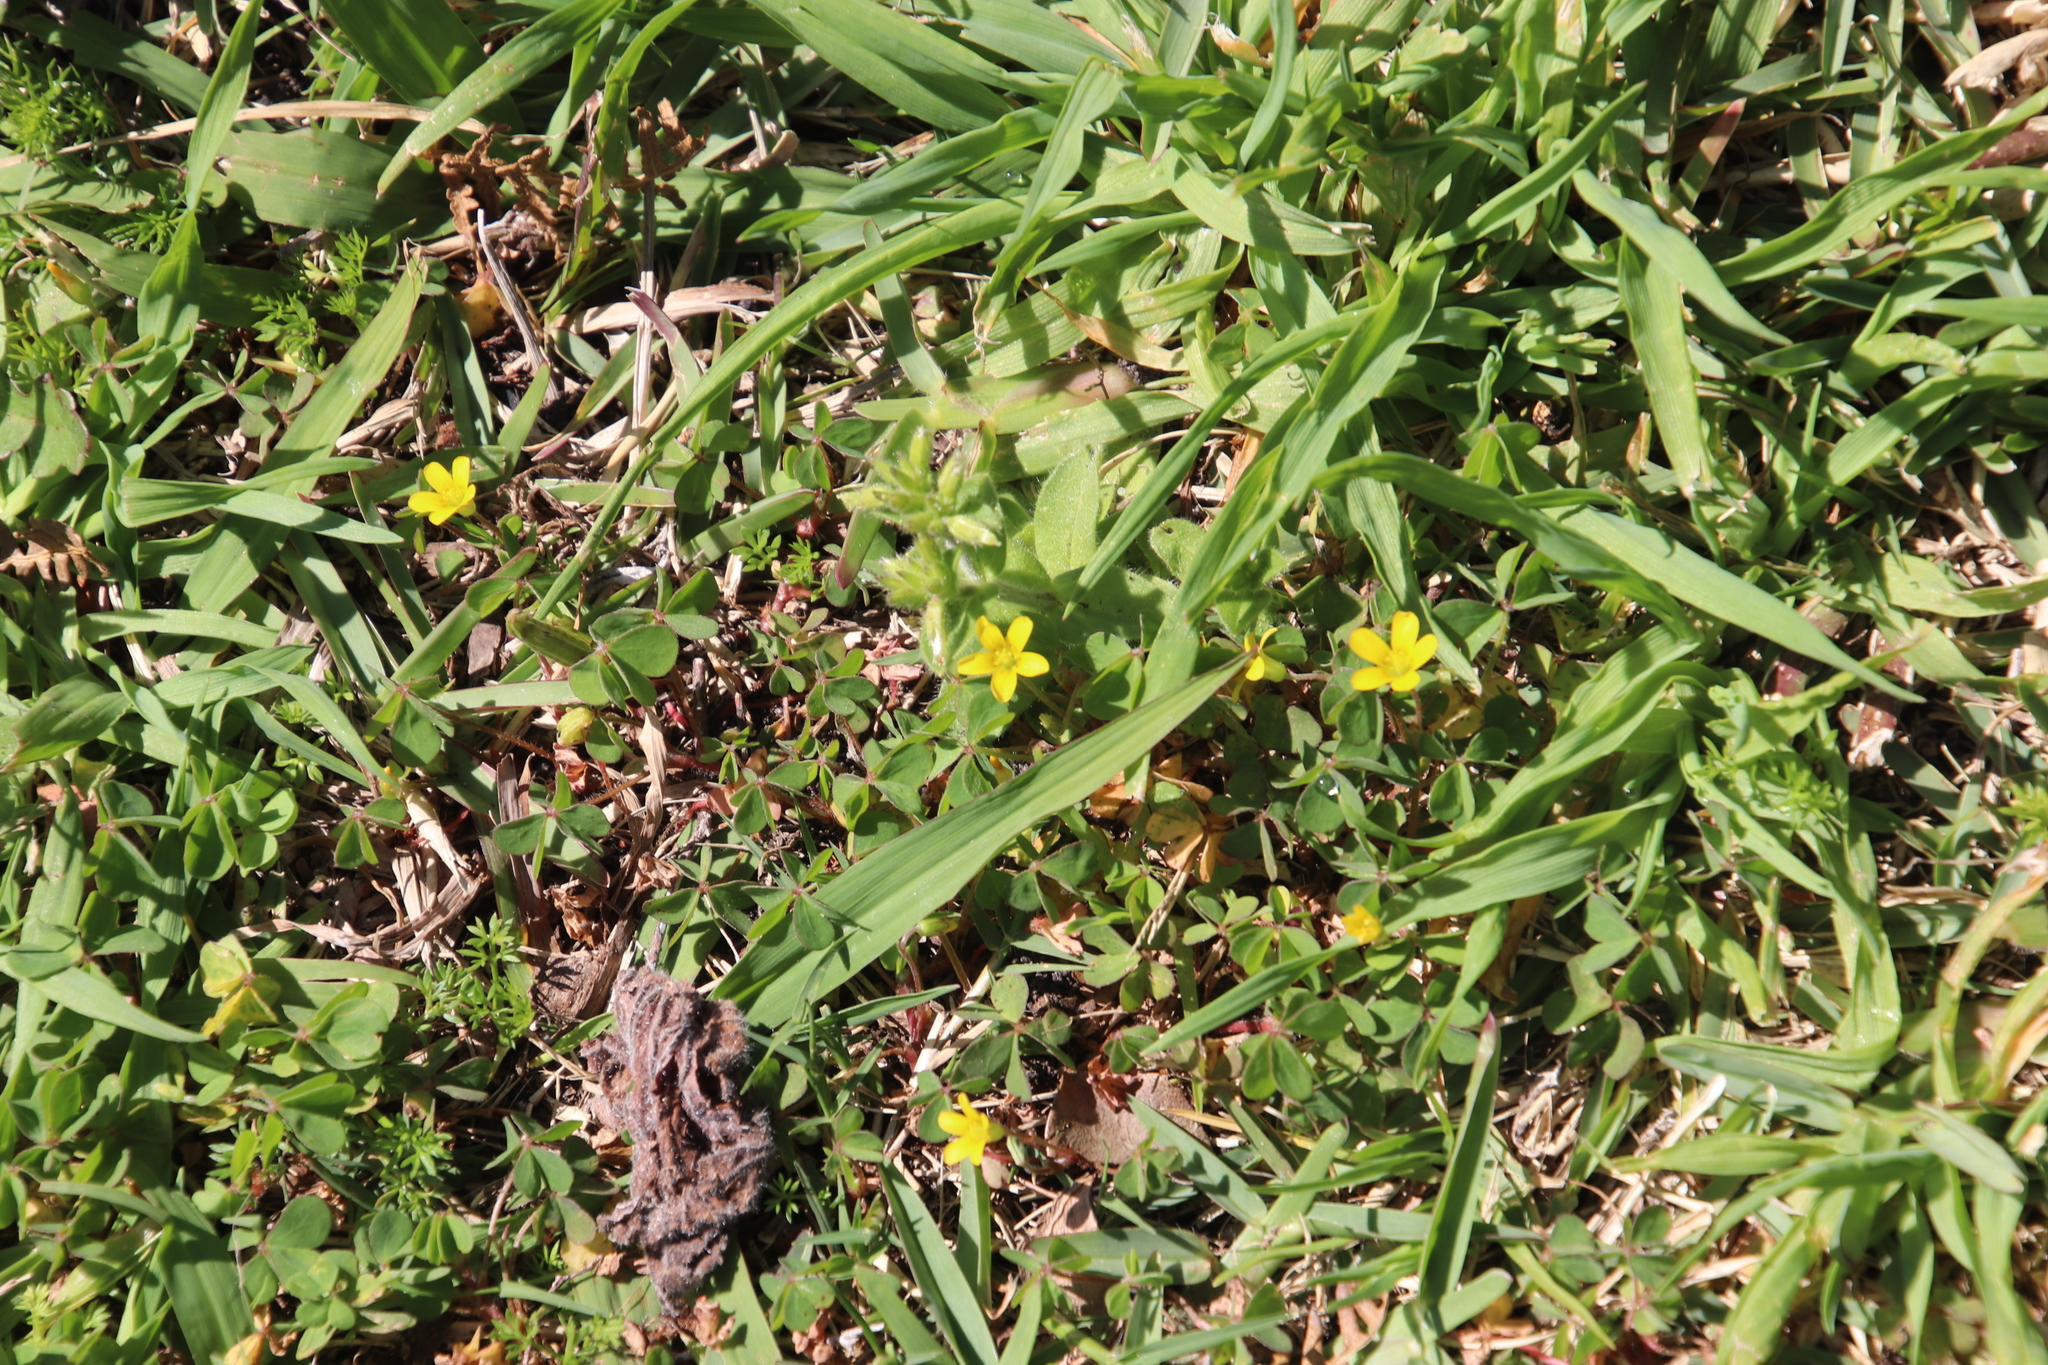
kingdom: Plantae
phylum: Tracheophyta
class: Magnoliopsida
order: Oxalidales
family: Oxalidaceae
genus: Oxalis
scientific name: Oxalis corniculata
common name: Procumbent yellow-sorrel
